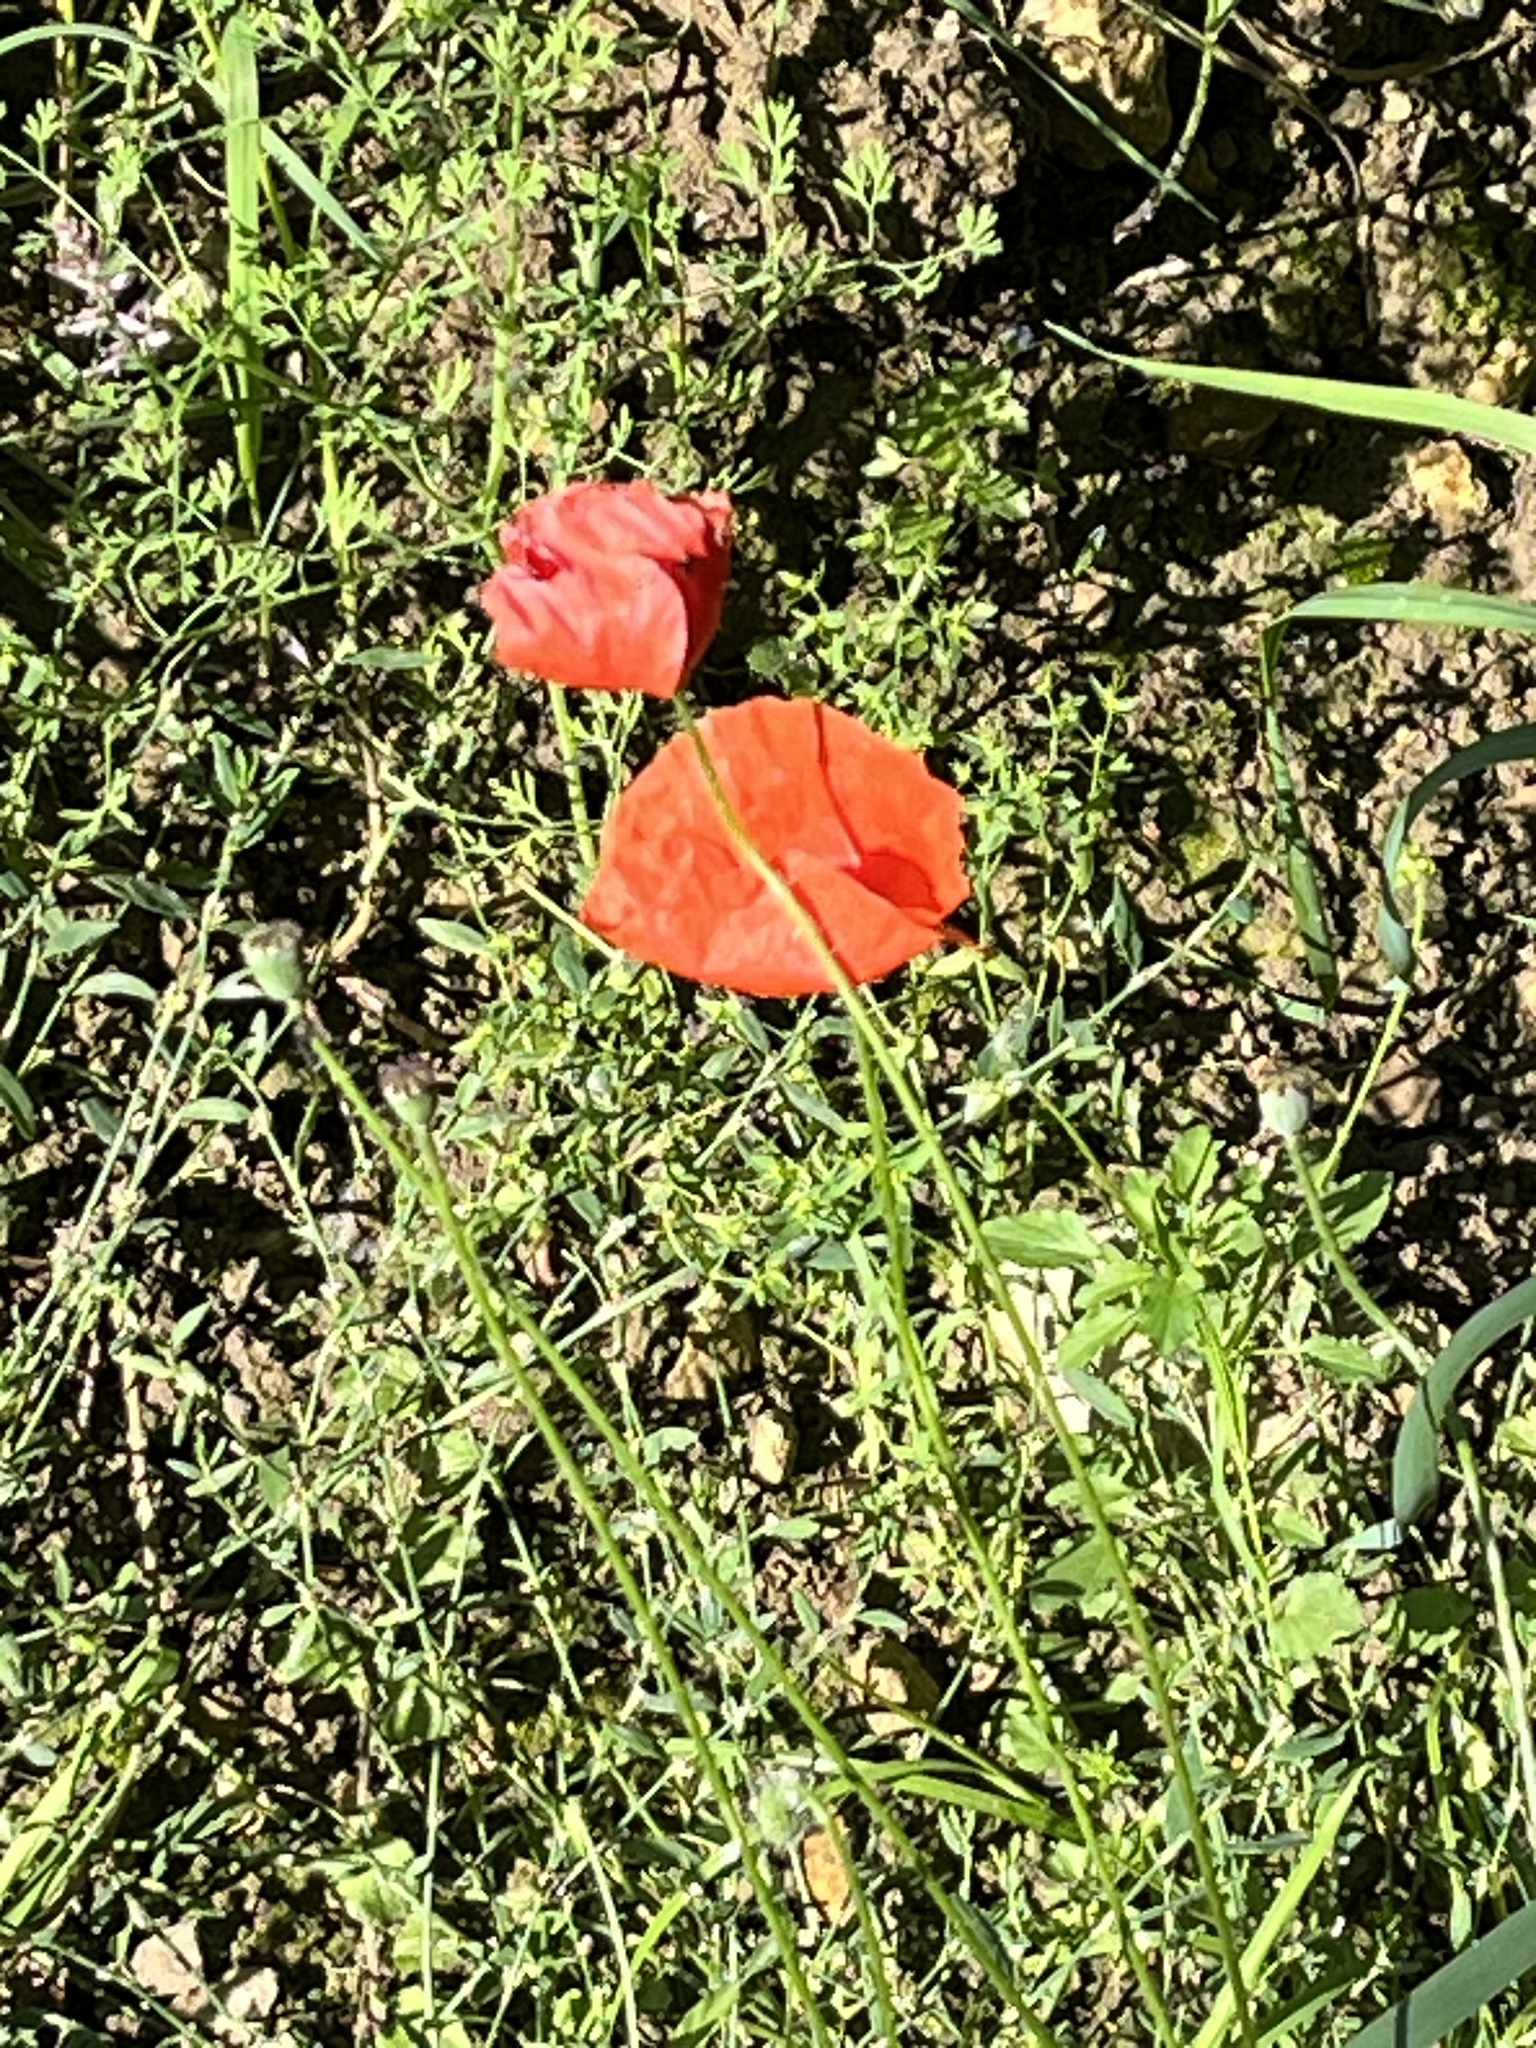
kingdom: Plantae
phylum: Tracheophyta
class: Magnoliopsida
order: Ranunculales
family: Papaveraceae
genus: Papaver
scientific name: Papaver rhoeas
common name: Corn poppy
